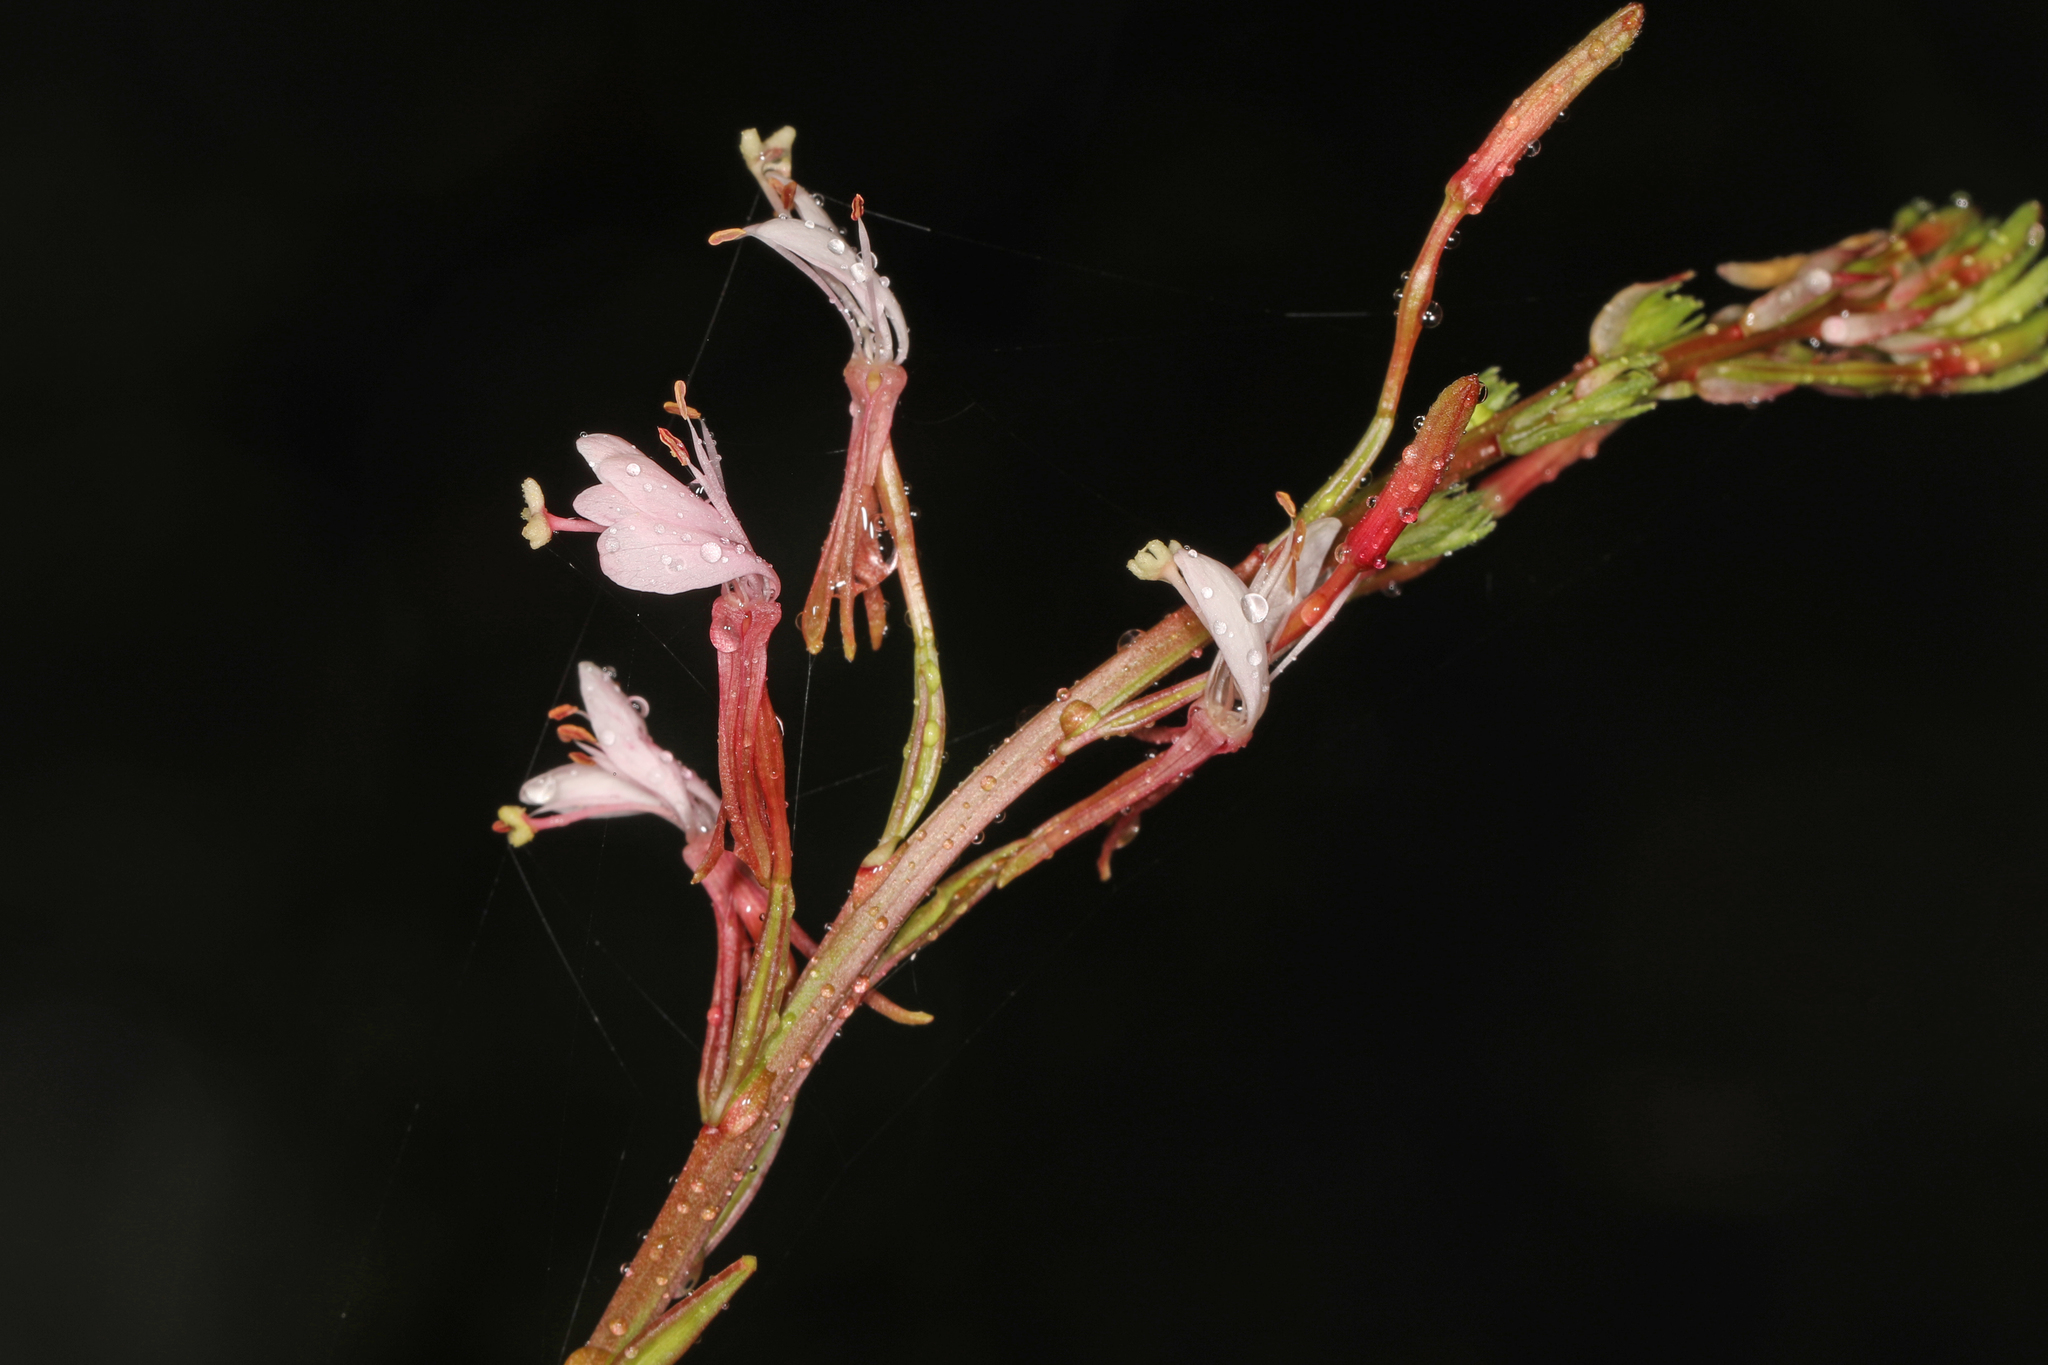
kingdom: Plantae
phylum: Tracheophyta
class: Magnoliopsida
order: Myrtales
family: Onagraceae
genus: Oenothera
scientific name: Oenothera simulans
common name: Southern beeblossom
